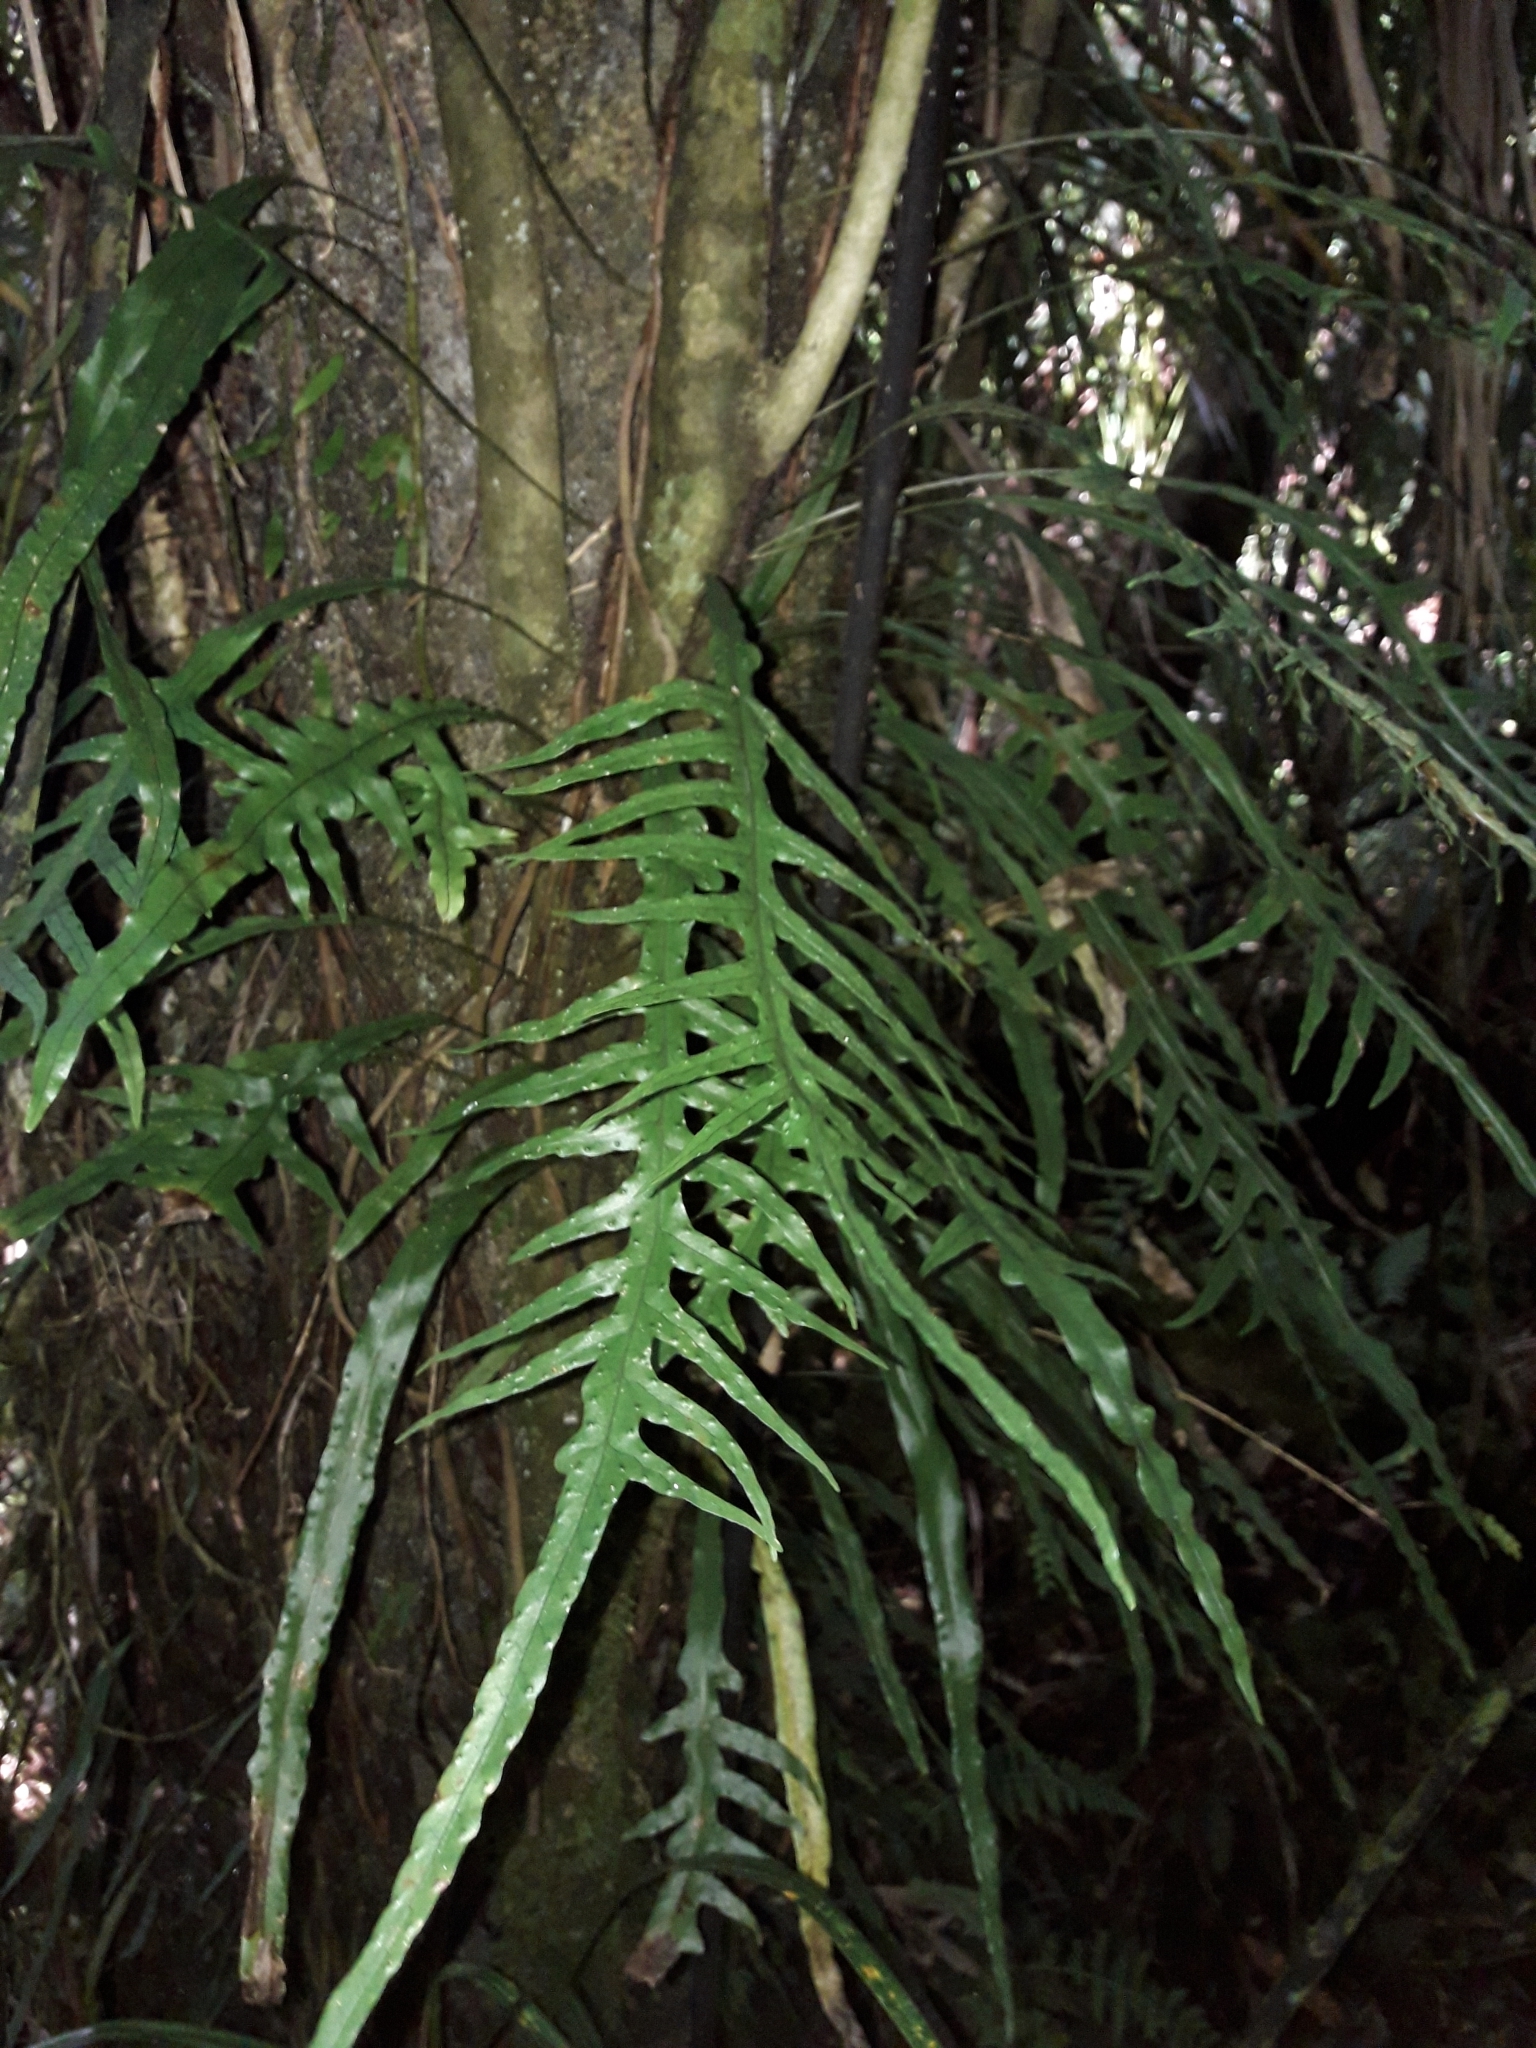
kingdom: Plantae
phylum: Tracheophyta
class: Polypodiopsida
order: Polypodiales
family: Polypodiaceae
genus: Lecanopteris
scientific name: Lecanopteris scandens
